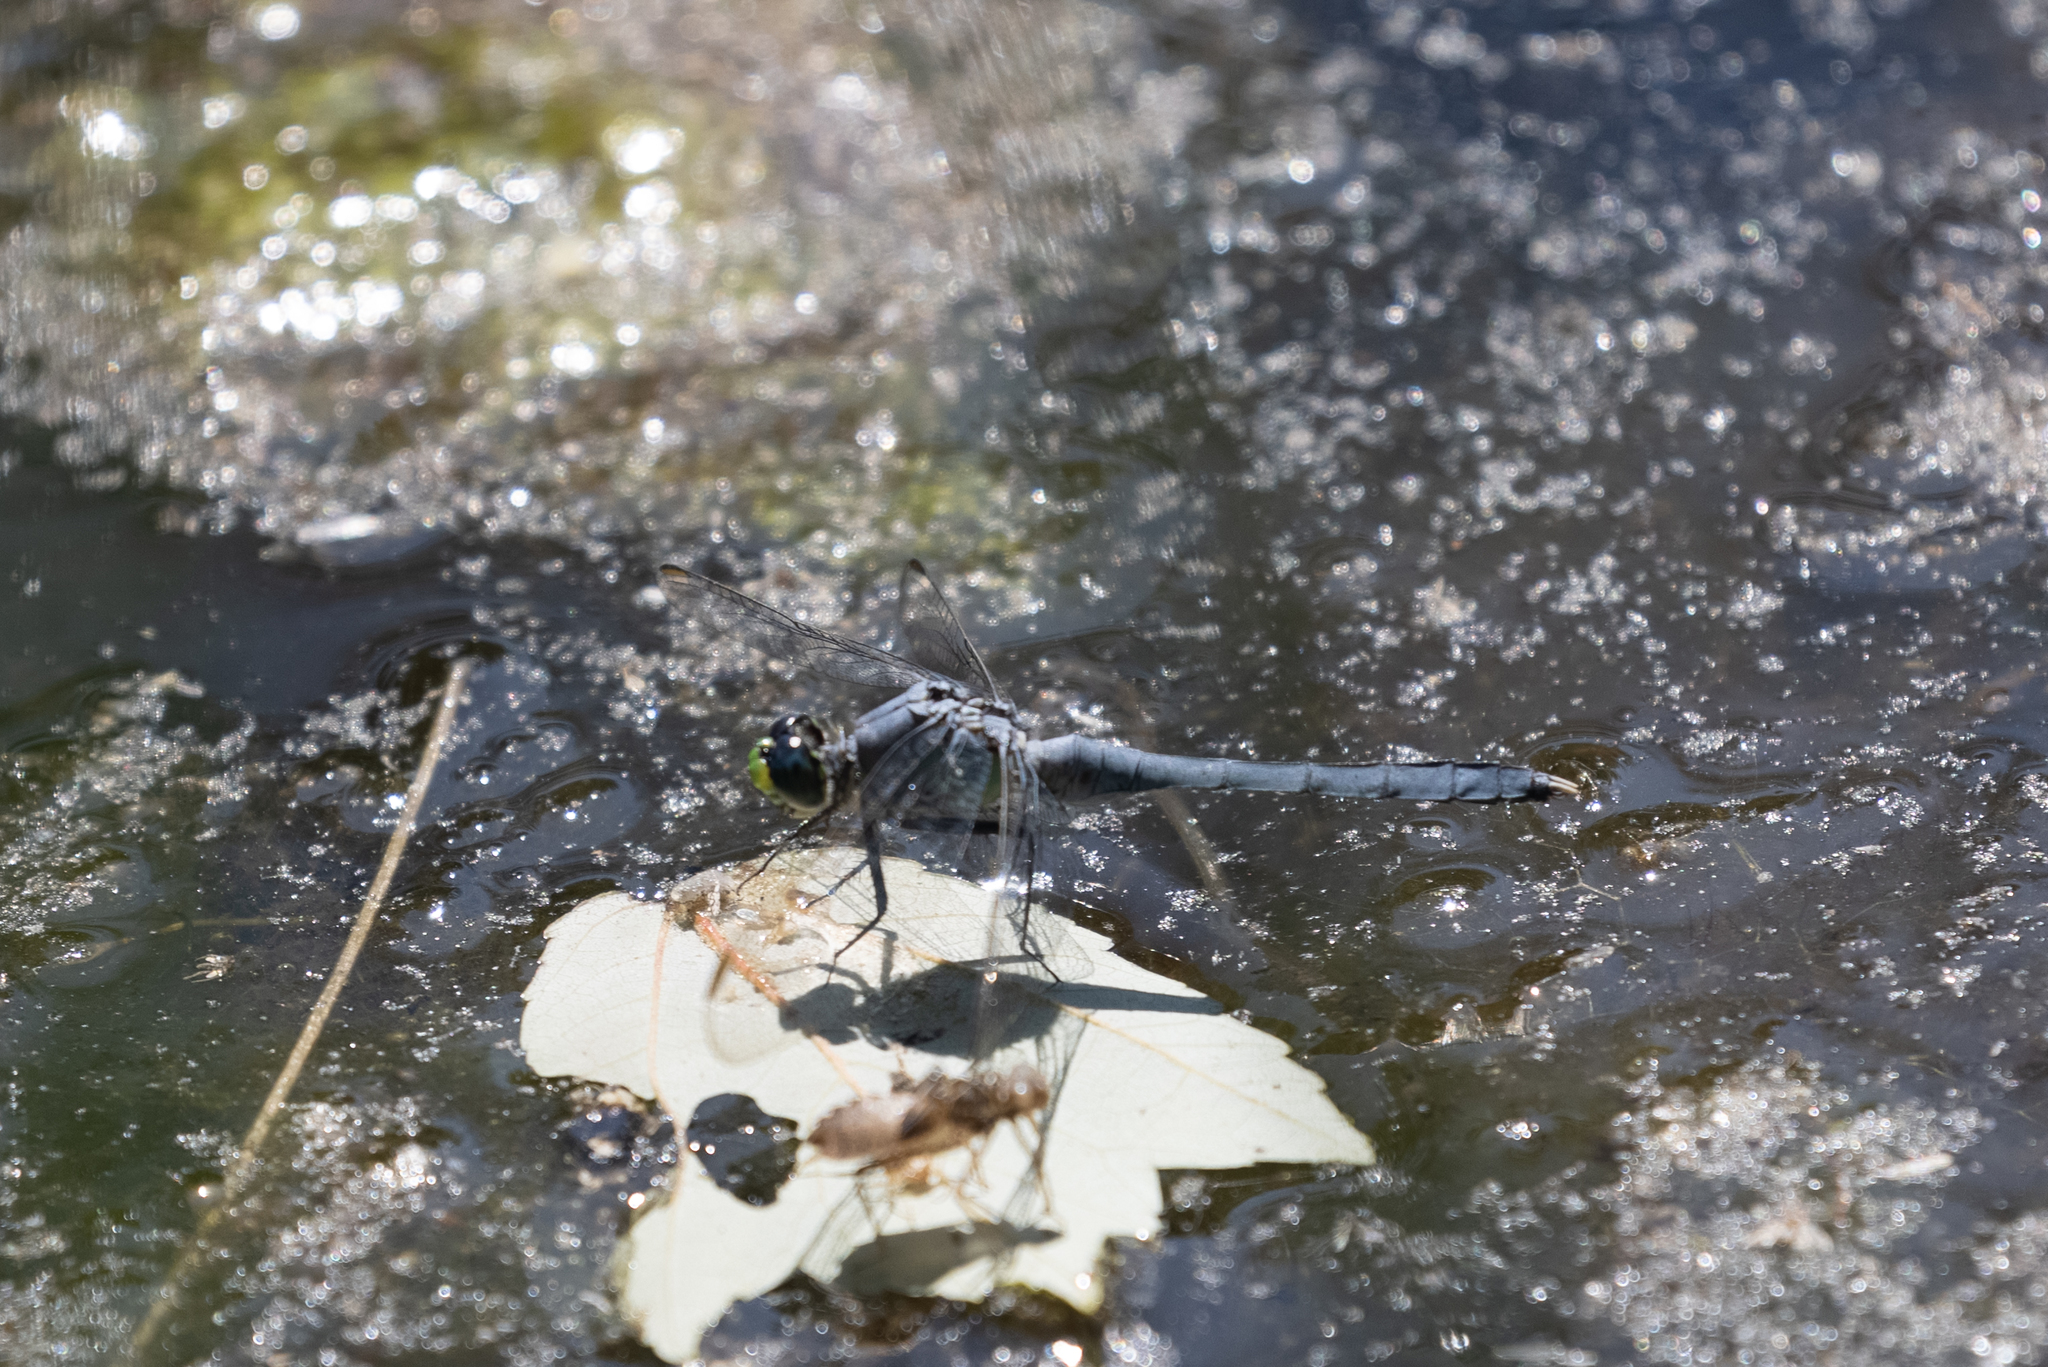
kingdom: Animalia
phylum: Arthropoda
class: Insecta
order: Odonata
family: Libellulidae
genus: Erythemis
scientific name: Erythemis simplicicollis
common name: Eastern pondhawk
